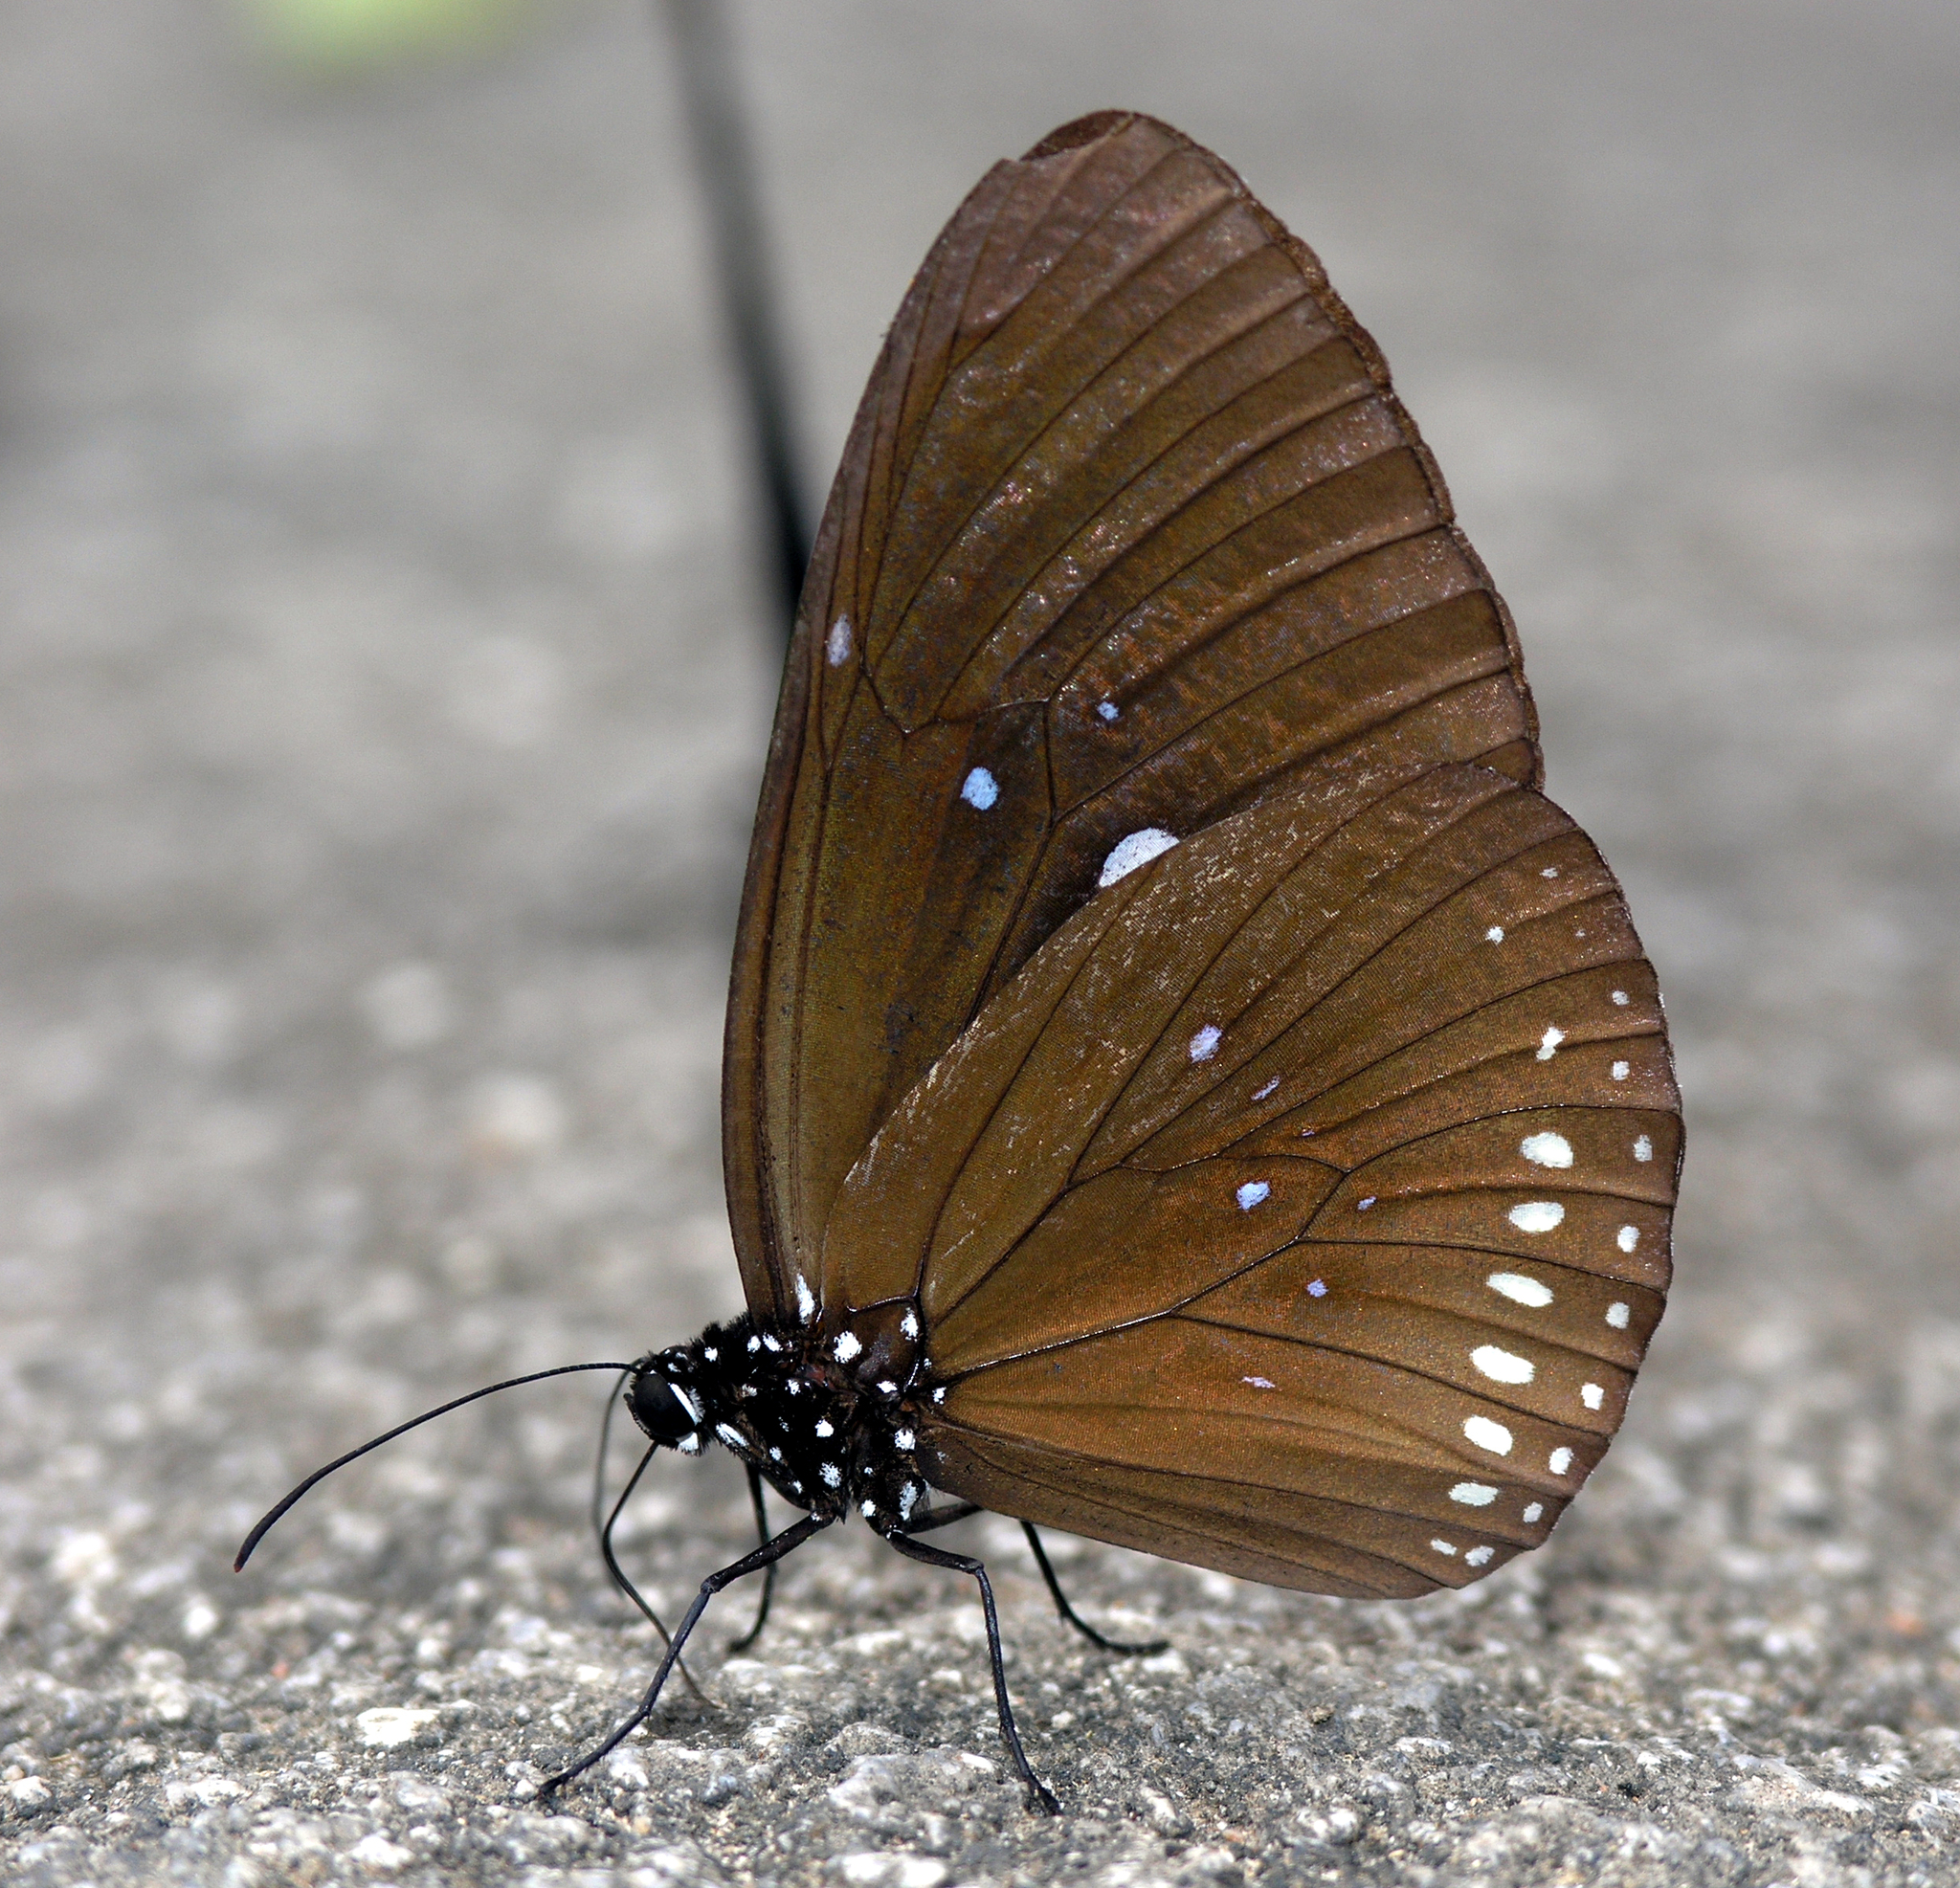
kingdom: Animalia
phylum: Arthropoda
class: Insecta
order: Lepidoptera
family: Nymphalidae
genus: Euploea
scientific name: Euploea modesta
